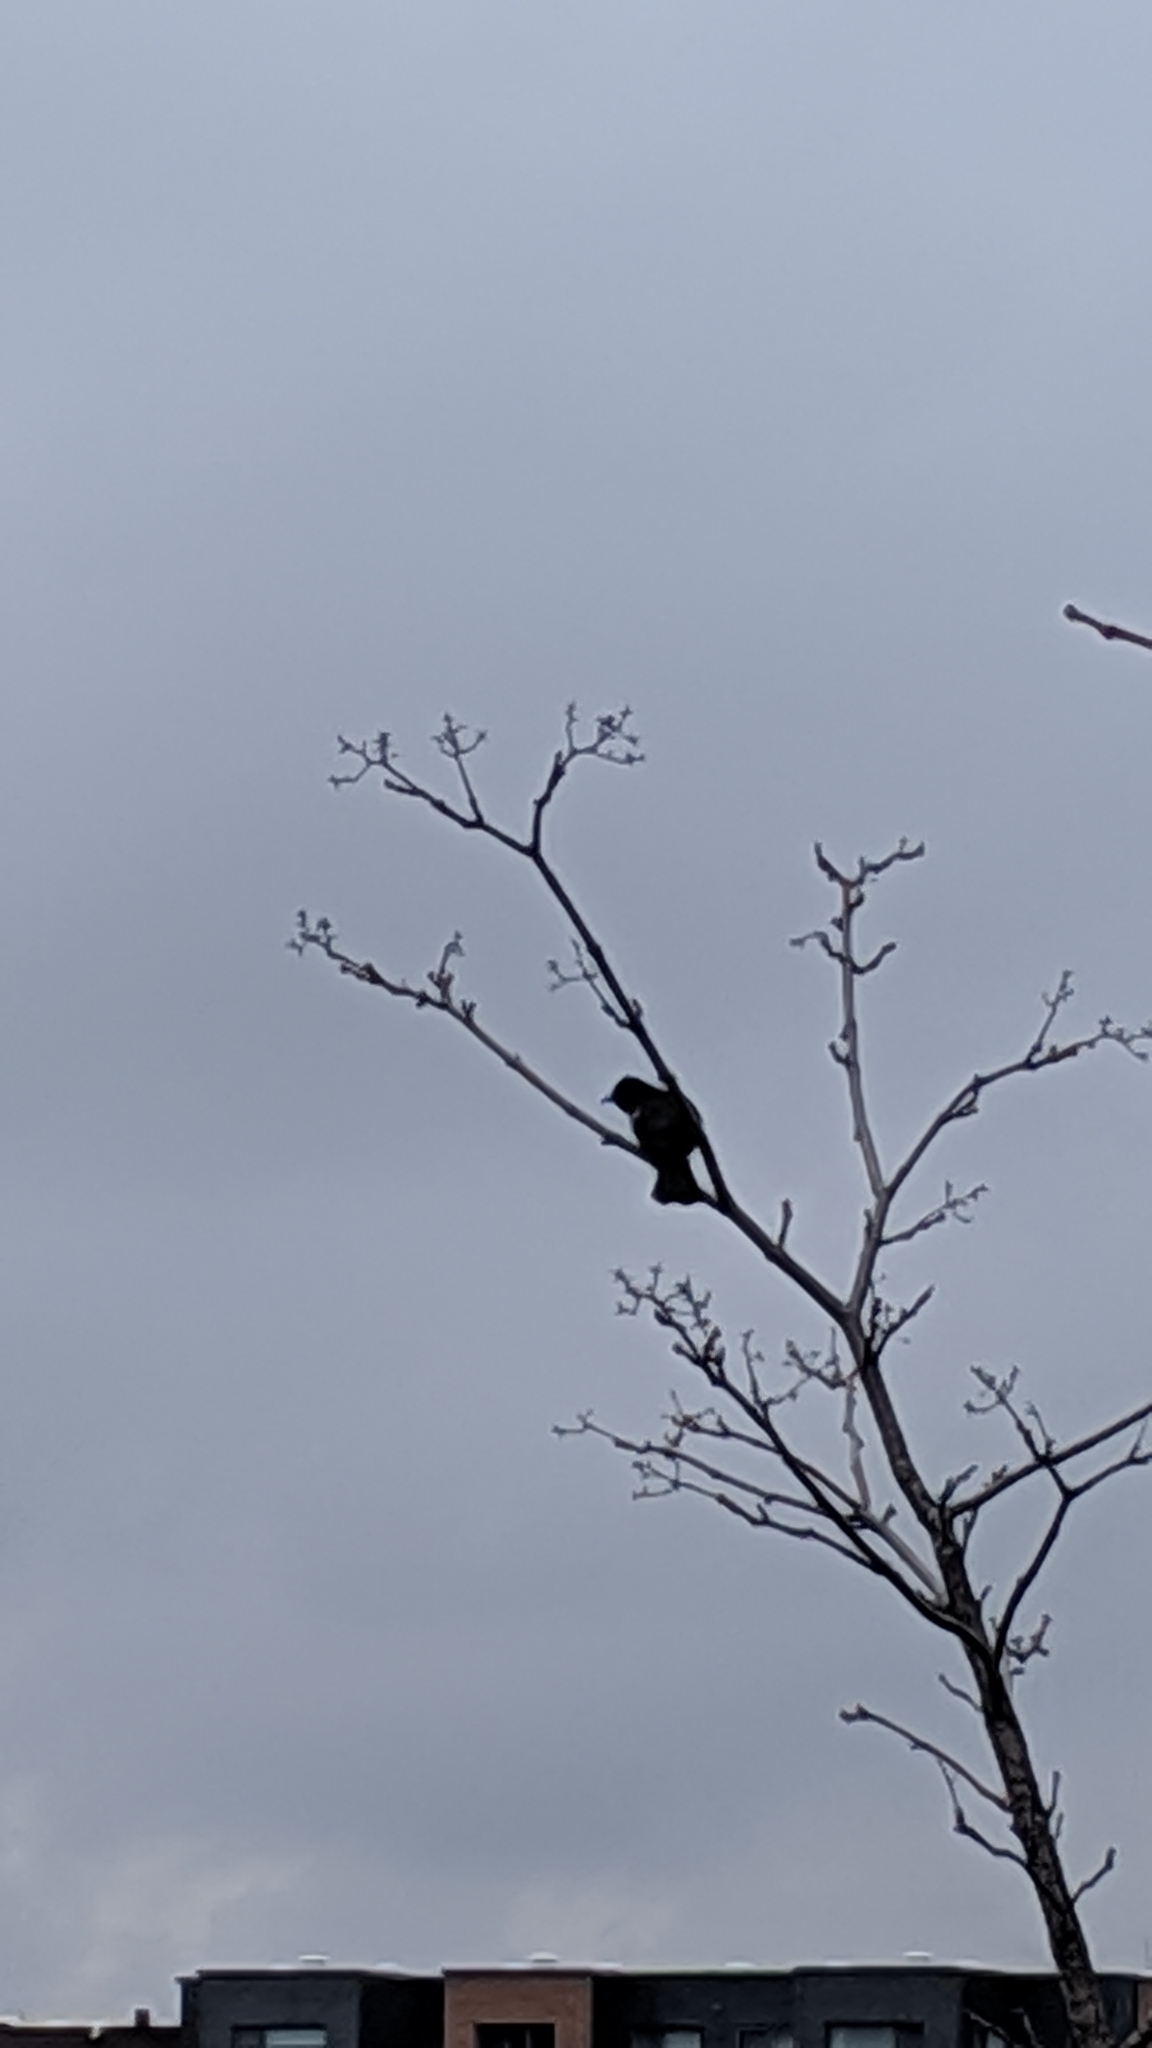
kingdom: Animalia
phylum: Chordata
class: Aves
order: Passeriformes
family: Icteridae
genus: Agelaius
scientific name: Agelaius phoeniceus
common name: Red-winged blackbird
